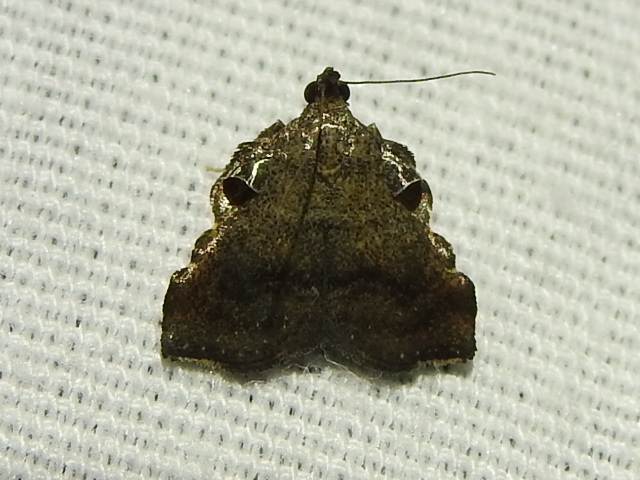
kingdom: Animalia
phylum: Arthropoda
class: Insecta
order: Lepidoptera
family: Pyralidae
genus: Salobrena
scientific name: Salobrena sincera
